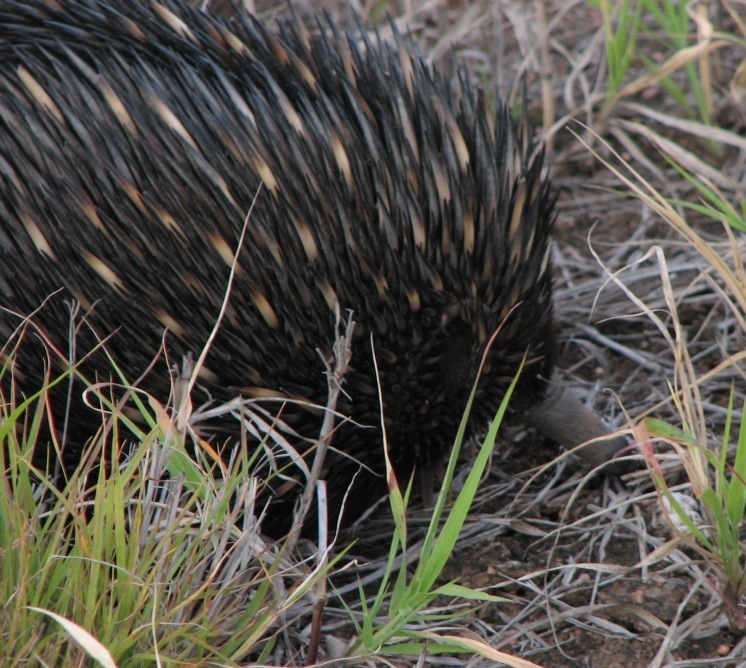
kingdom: Animalia
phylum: Chordata
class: Mammalia
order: Monotremata
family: Tachyglossidae
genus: Tachyglossus
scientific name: Tachyglossus aculeatus
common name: Short-beaked echidna
